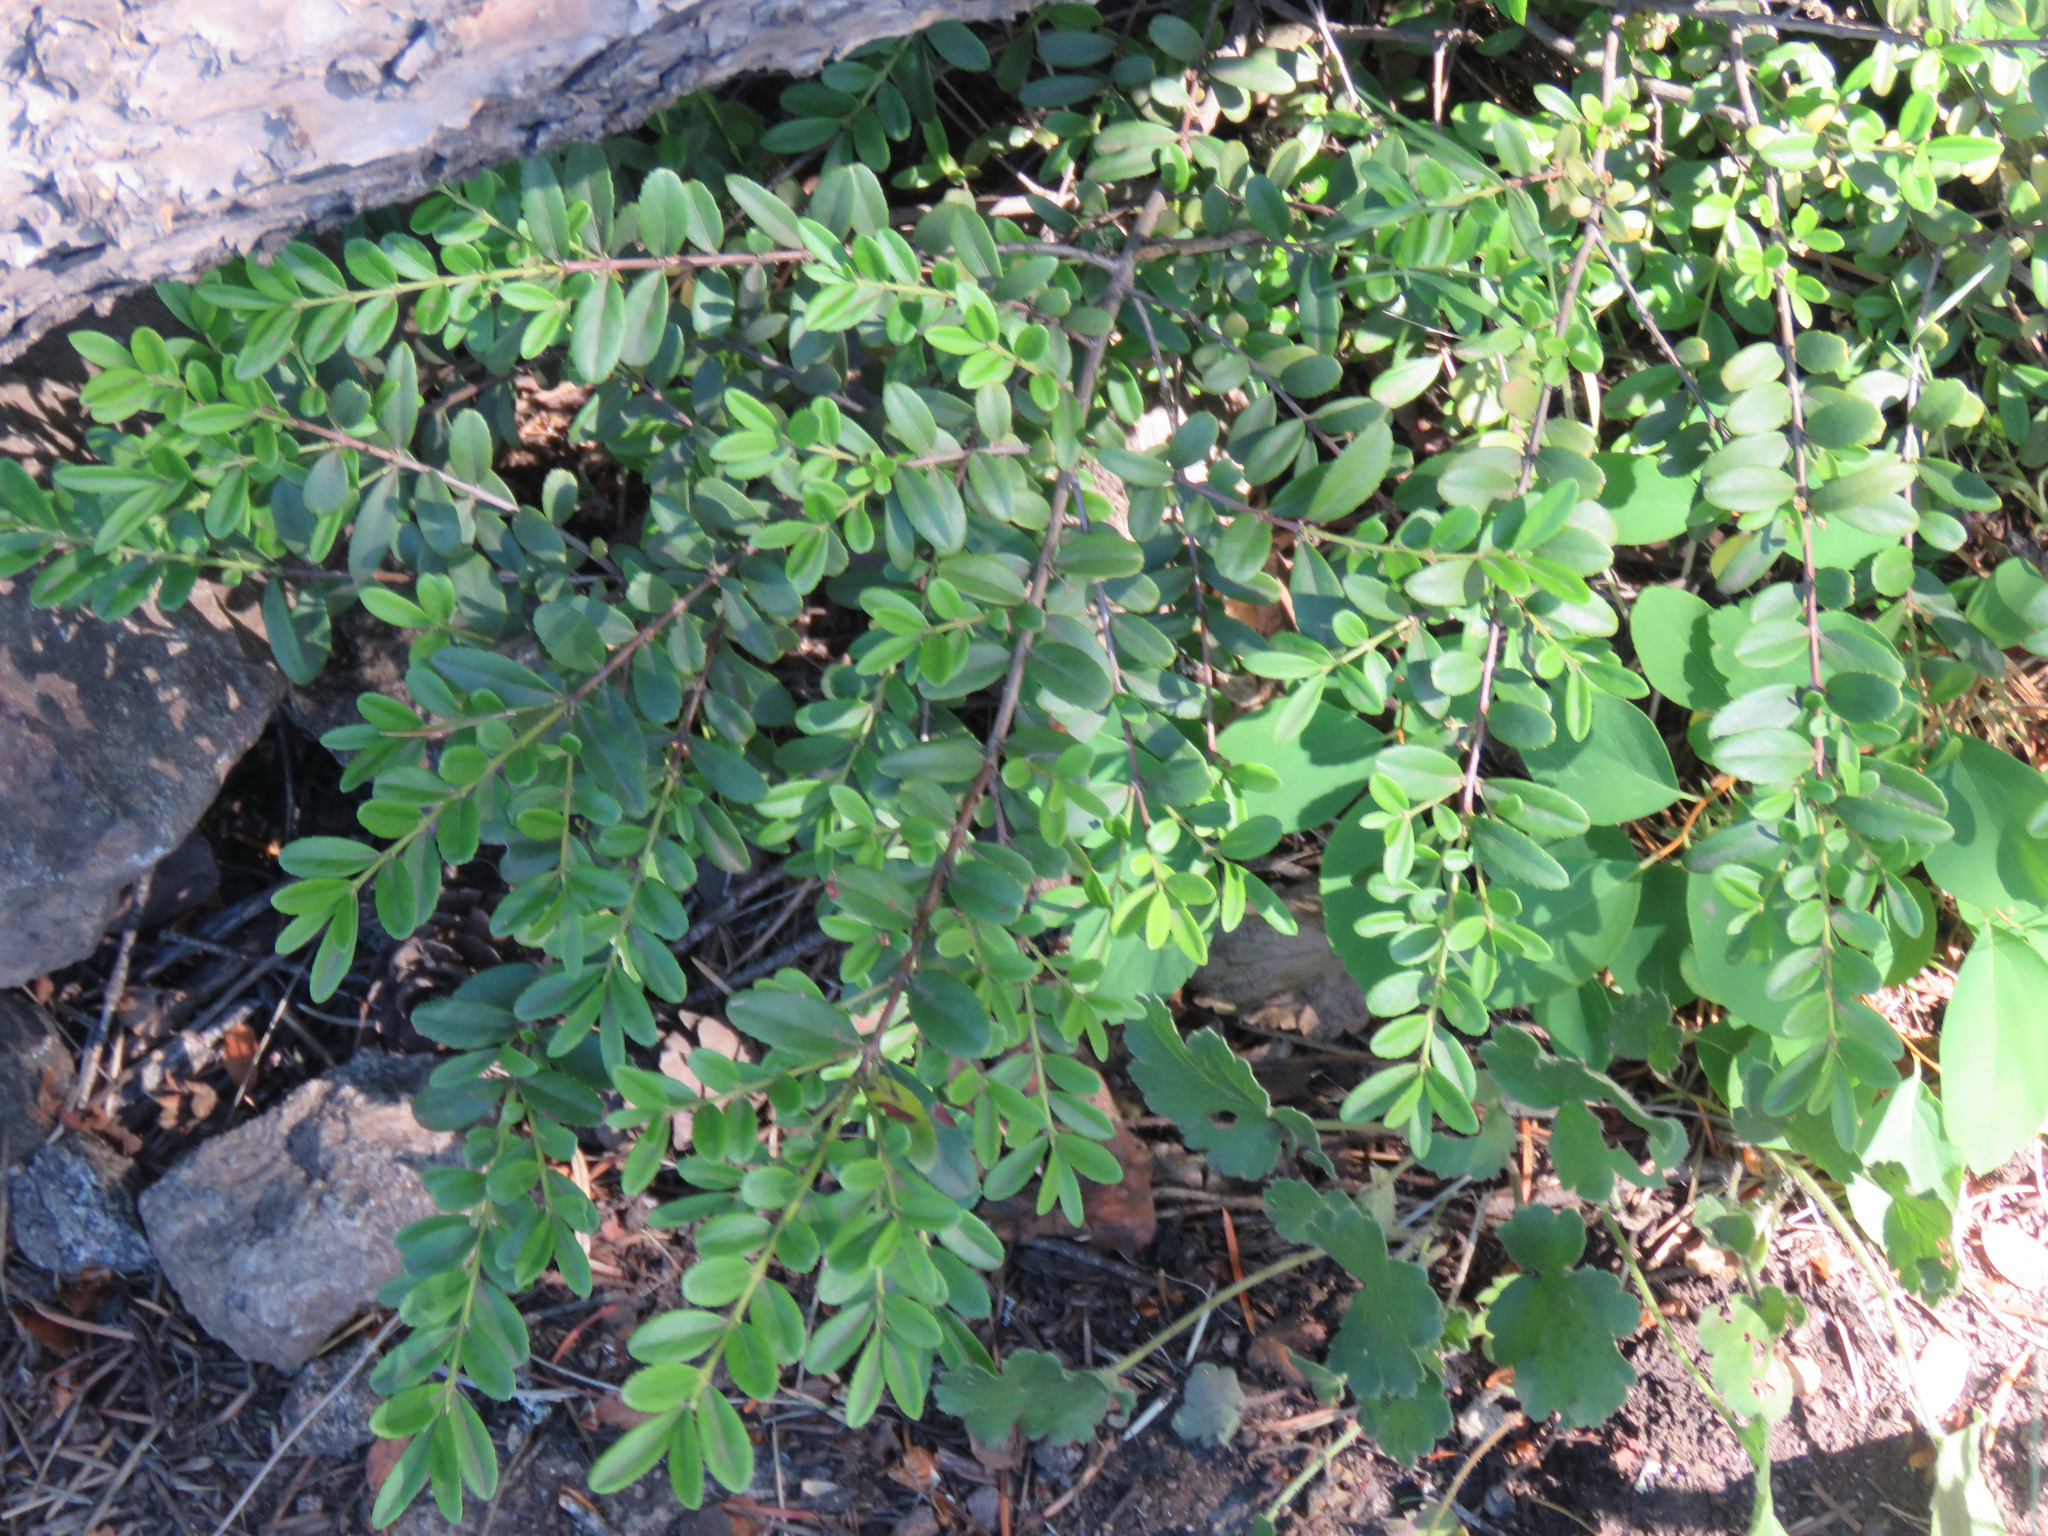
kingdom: Plantae
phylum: Tracheophyta
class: Magnoliopsida
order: Celastrales
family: Celastraceae
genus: Paxistima
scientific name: Paxistima myrsinites
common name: Mountain-lover
